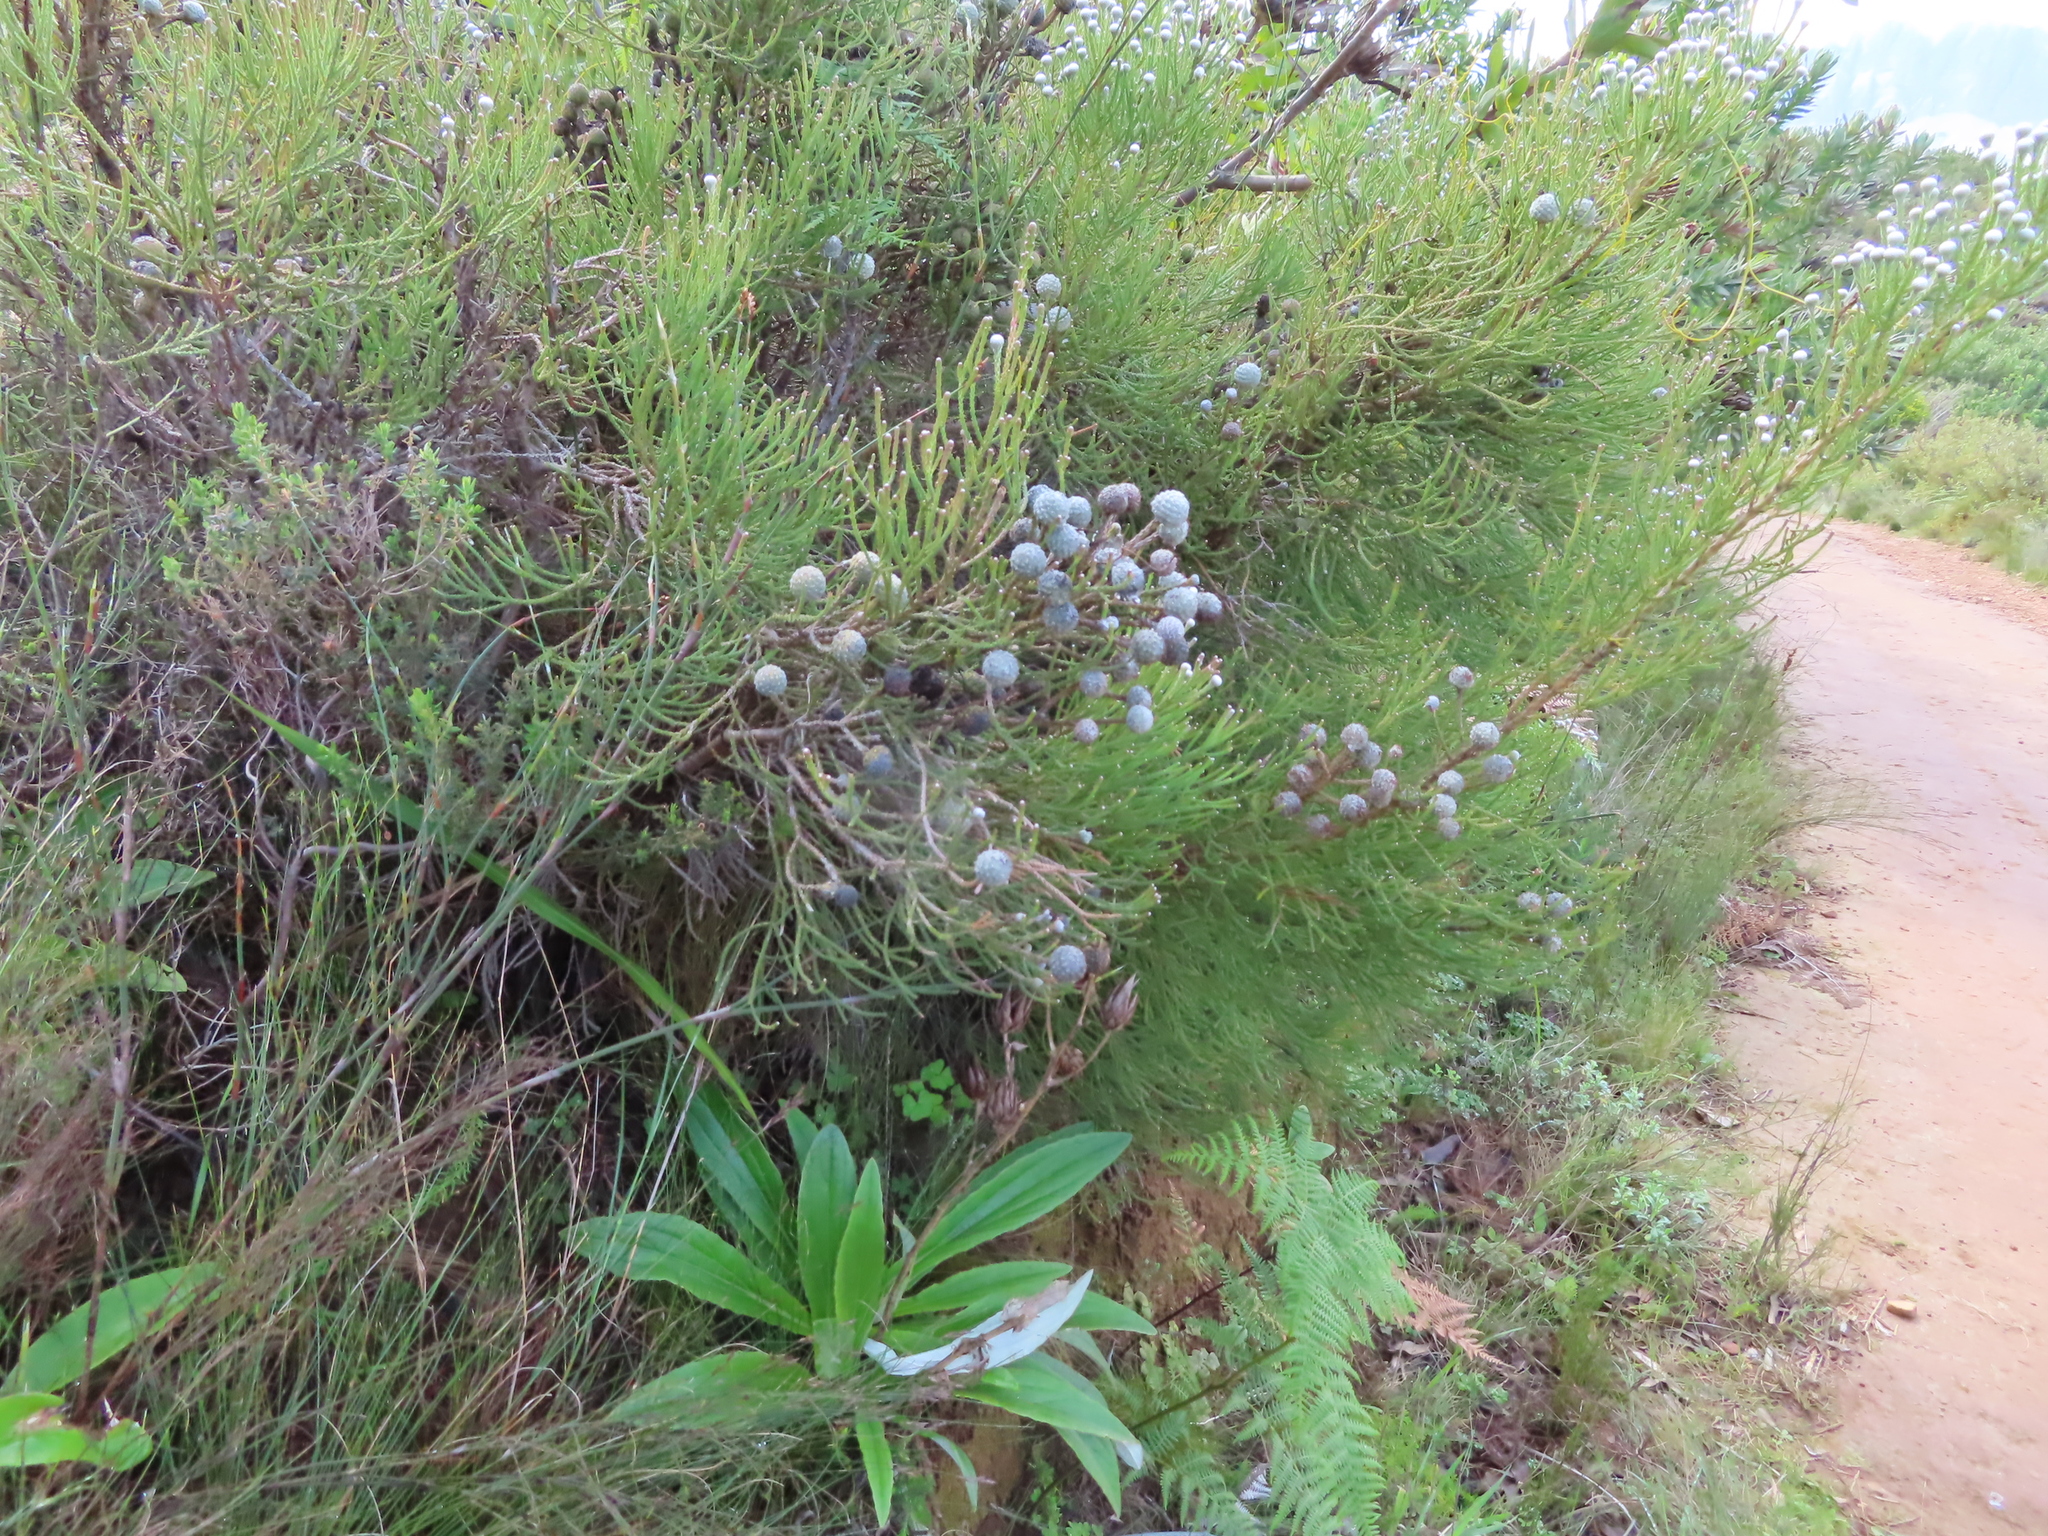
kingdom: Plantae
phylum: Tracheophyta
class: Magnoliopsida
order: Bruniales
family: Bruniaceae
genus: Brunia
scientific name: Brunia noduliflora
